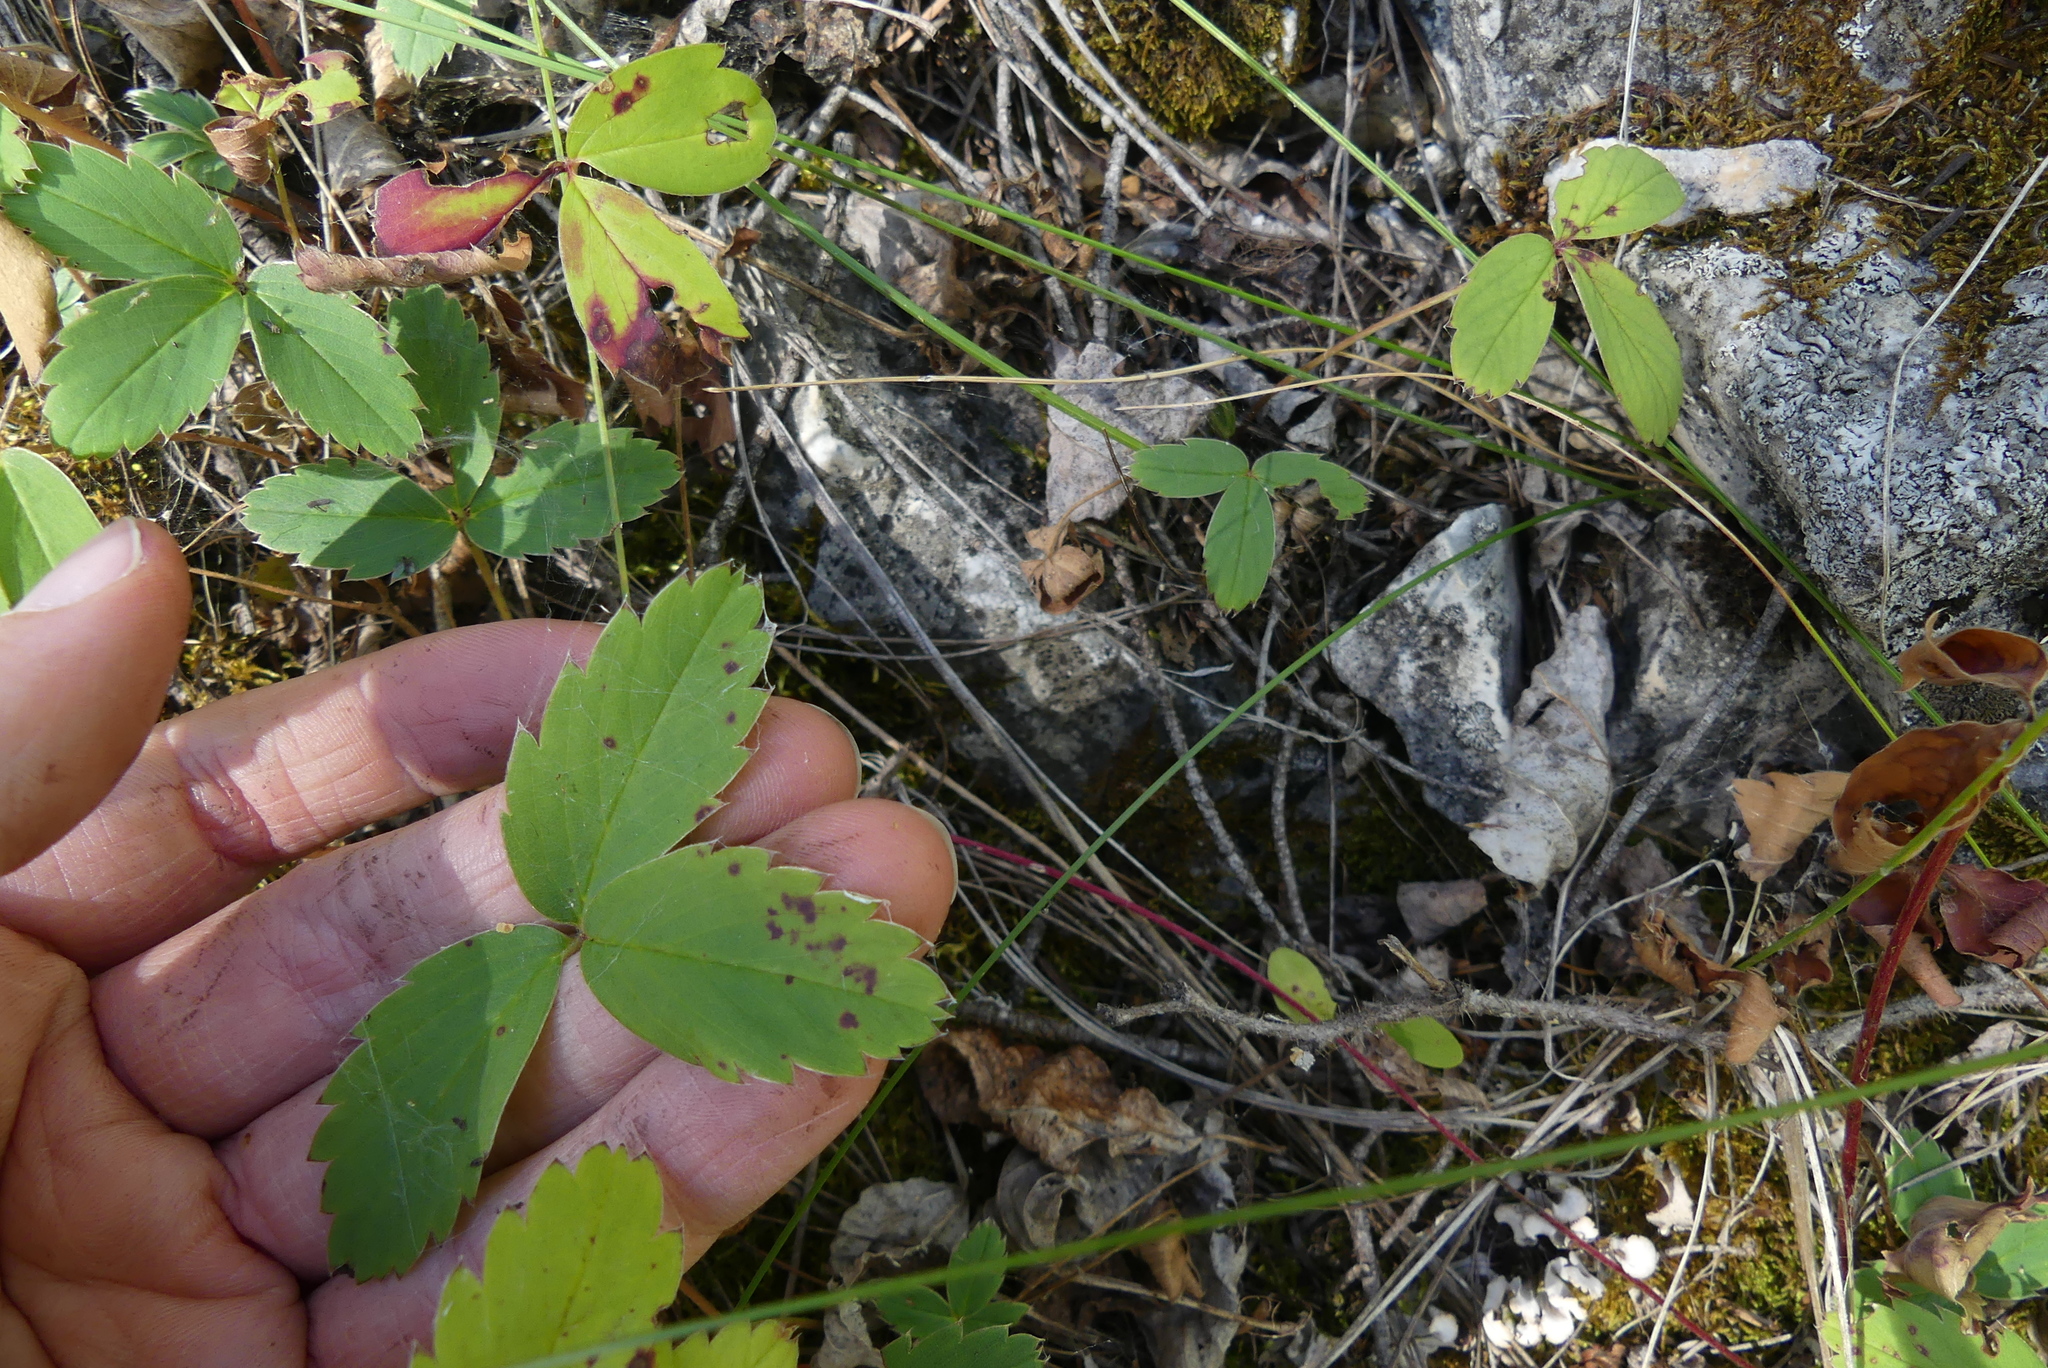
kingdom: Plantae
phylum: Tracheophyta
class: Magnoliopsida
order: Rosales
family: Rosaceae
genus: Fragaria
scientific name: Fragaria virginiana
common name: Thickleaved wild strawberry
